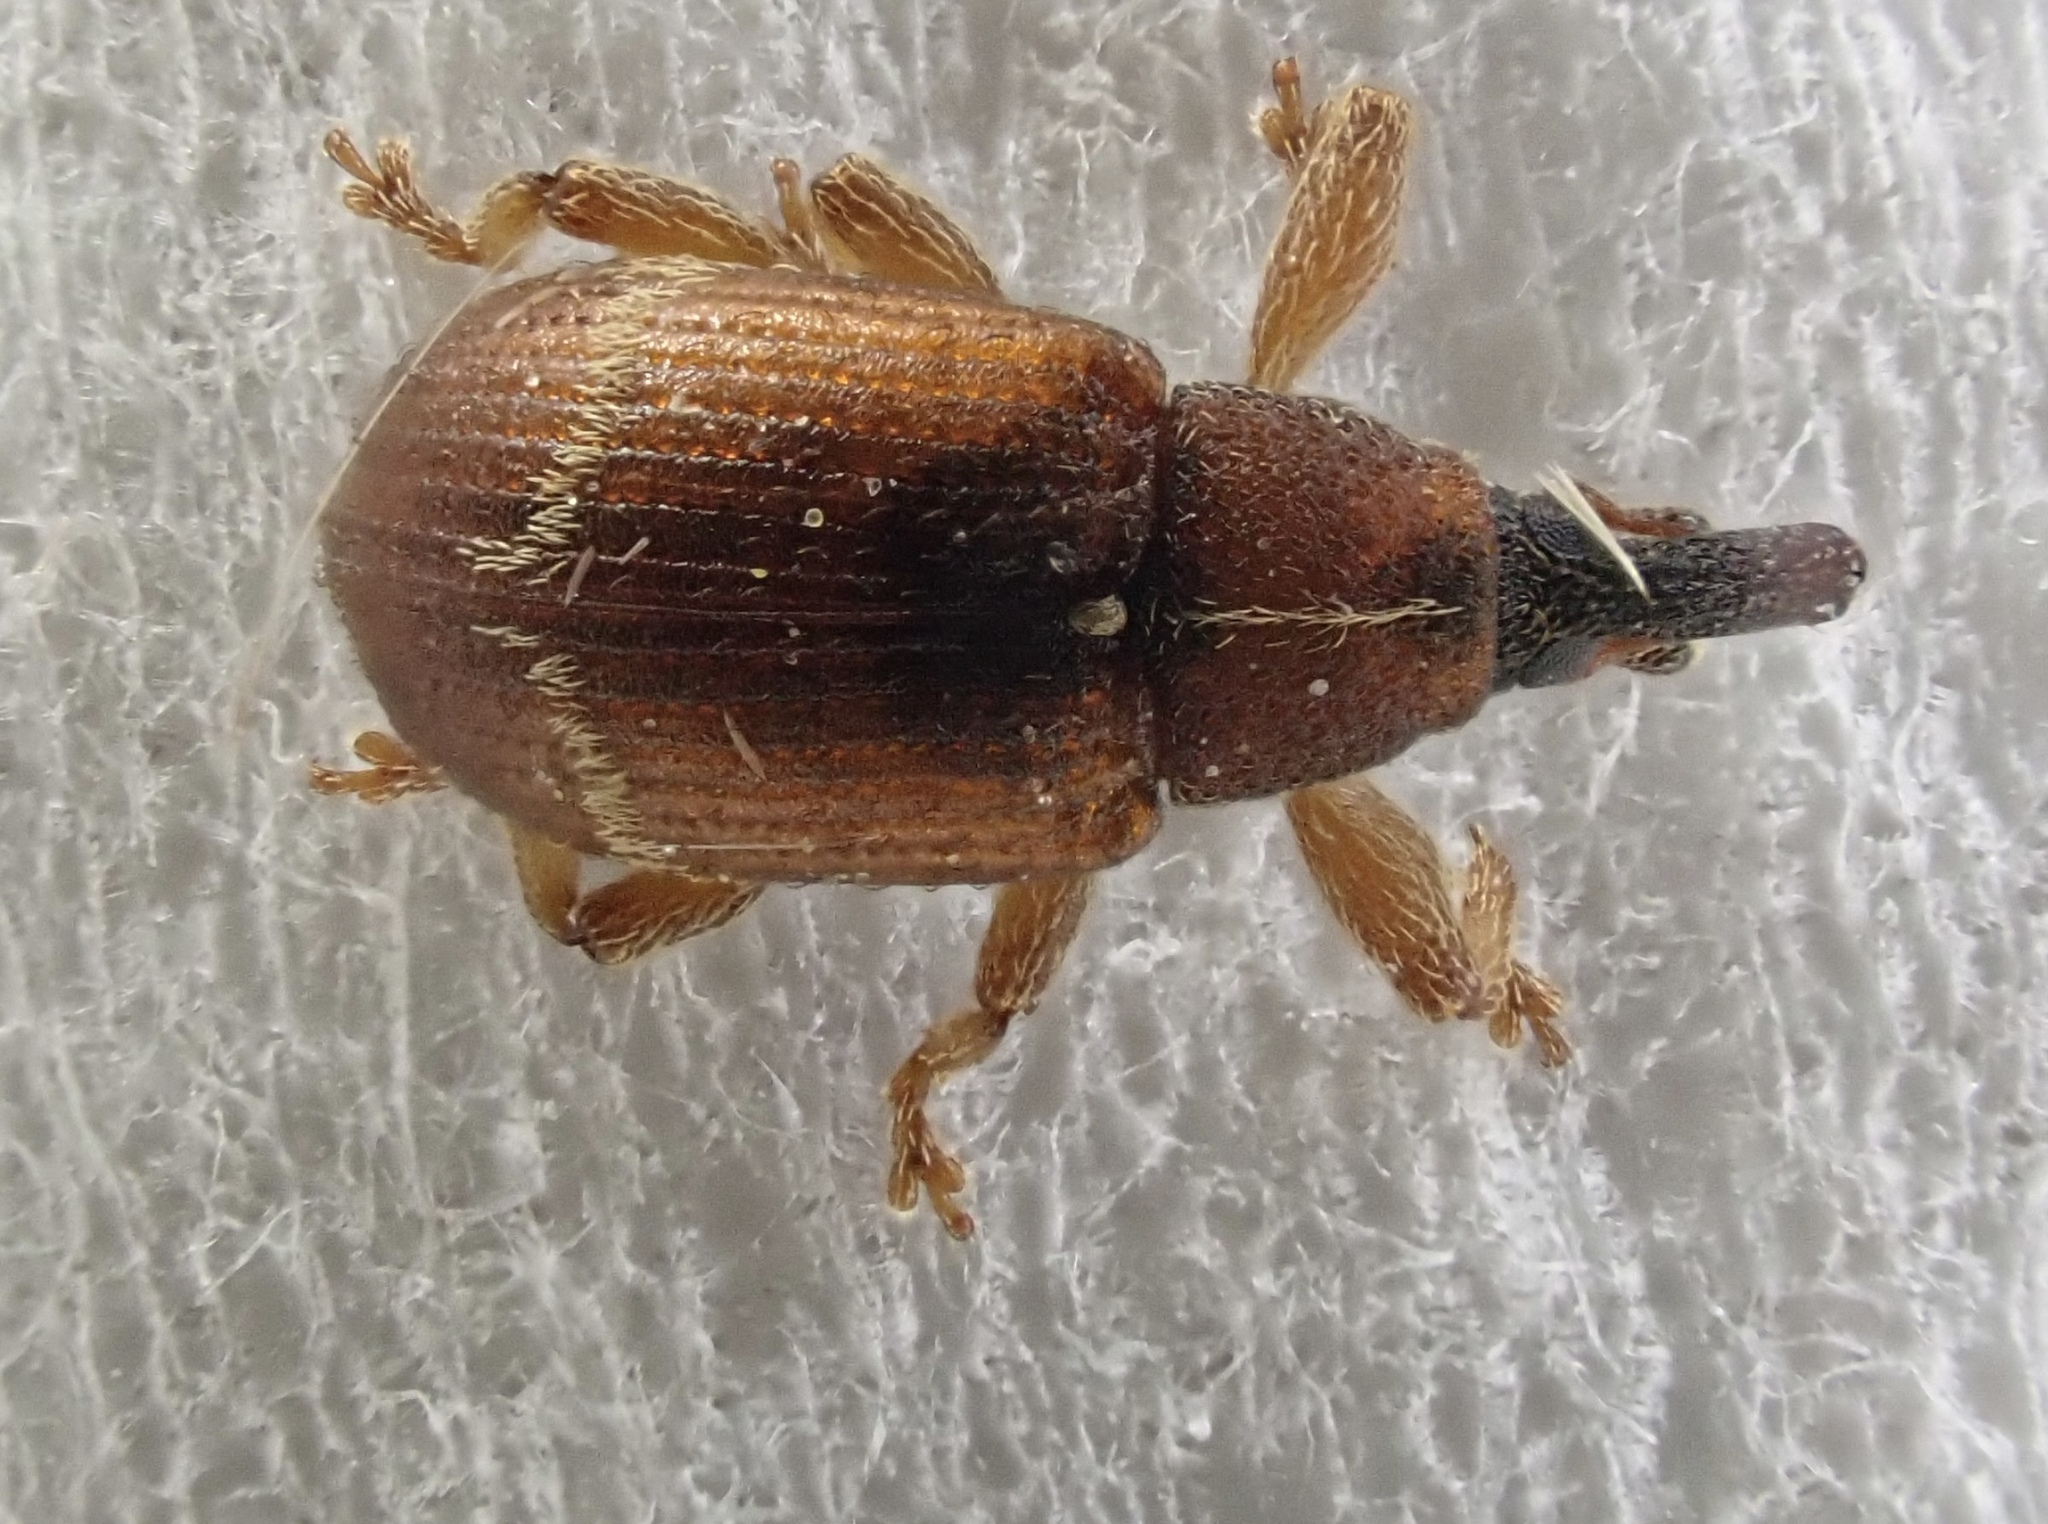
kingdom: Animalia
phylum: Arthropoda
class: Insecta
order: Coleoptera
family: Curculionidae
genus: Bradybatus
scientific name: Bradybatus fallax
